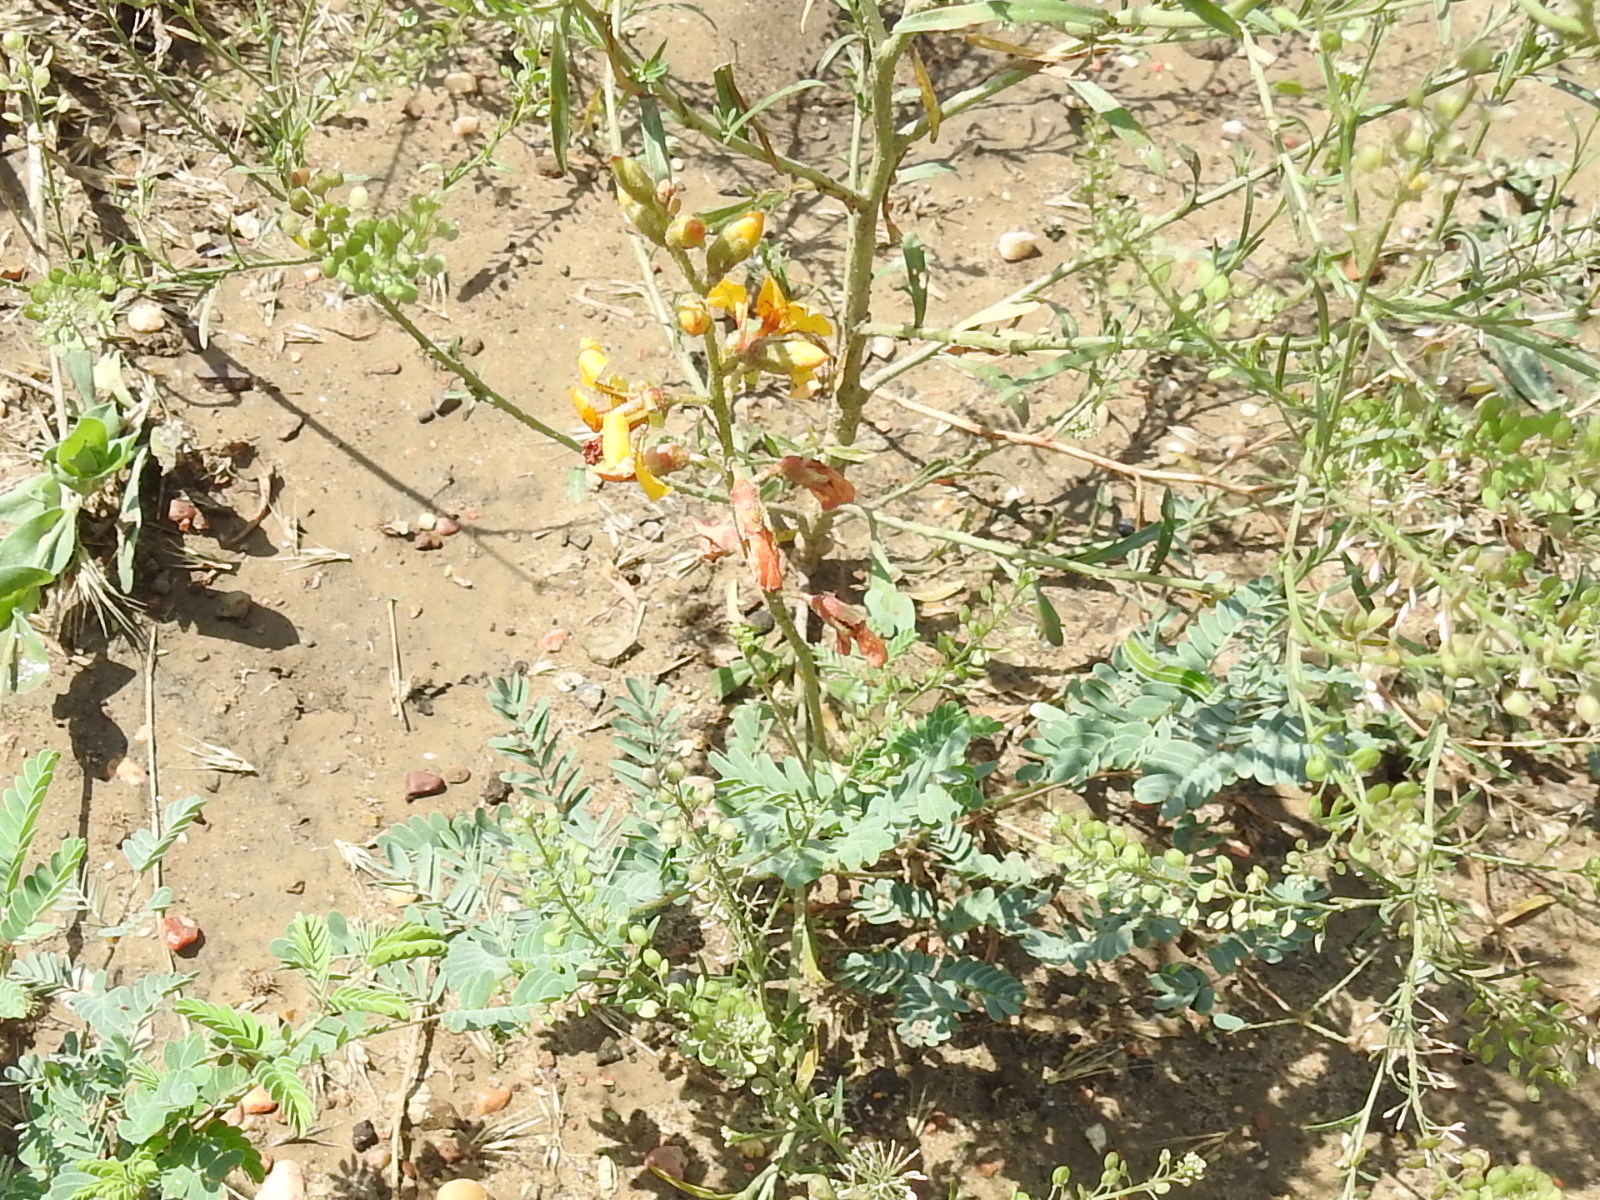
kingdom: Plantae
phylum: Tracheophyta
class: Magnoliopsida
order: Fabales
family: Fabaceae
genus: Hoffmannseggia
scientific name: Hoffmannseggia glauca
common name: Pignut
